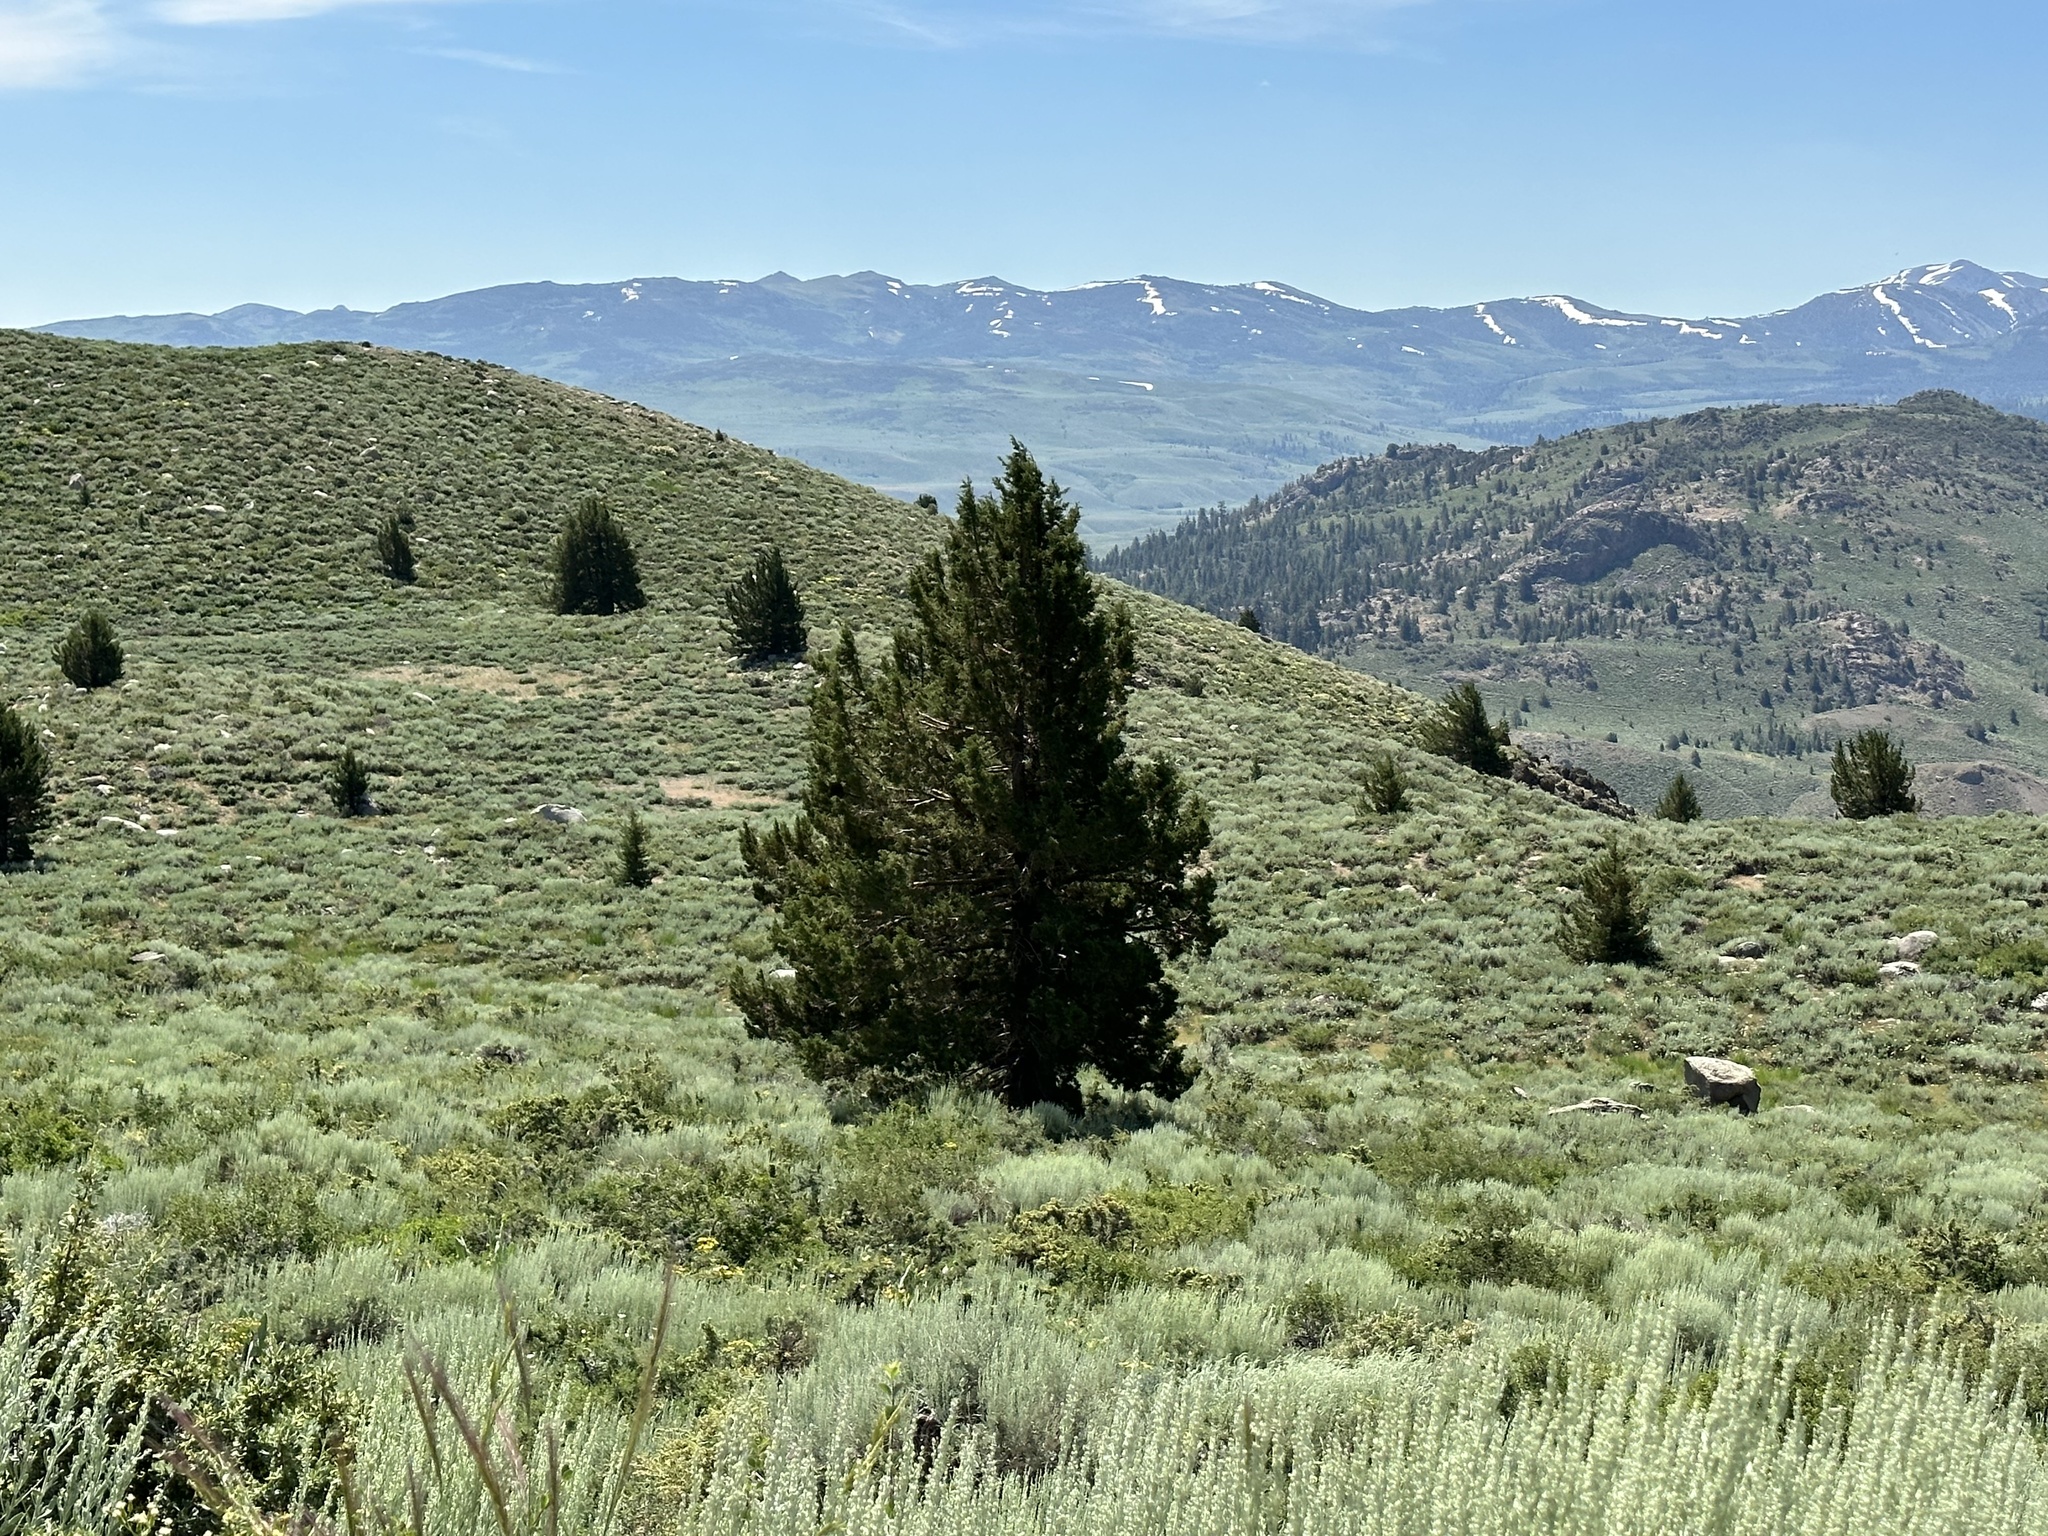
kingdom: Plantae
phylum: Tracheophyta
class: Pinopsida
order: Pinales
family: Cupressaceae
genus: Juniperus
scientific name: Juniperus occidentalis
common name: Western juniper
